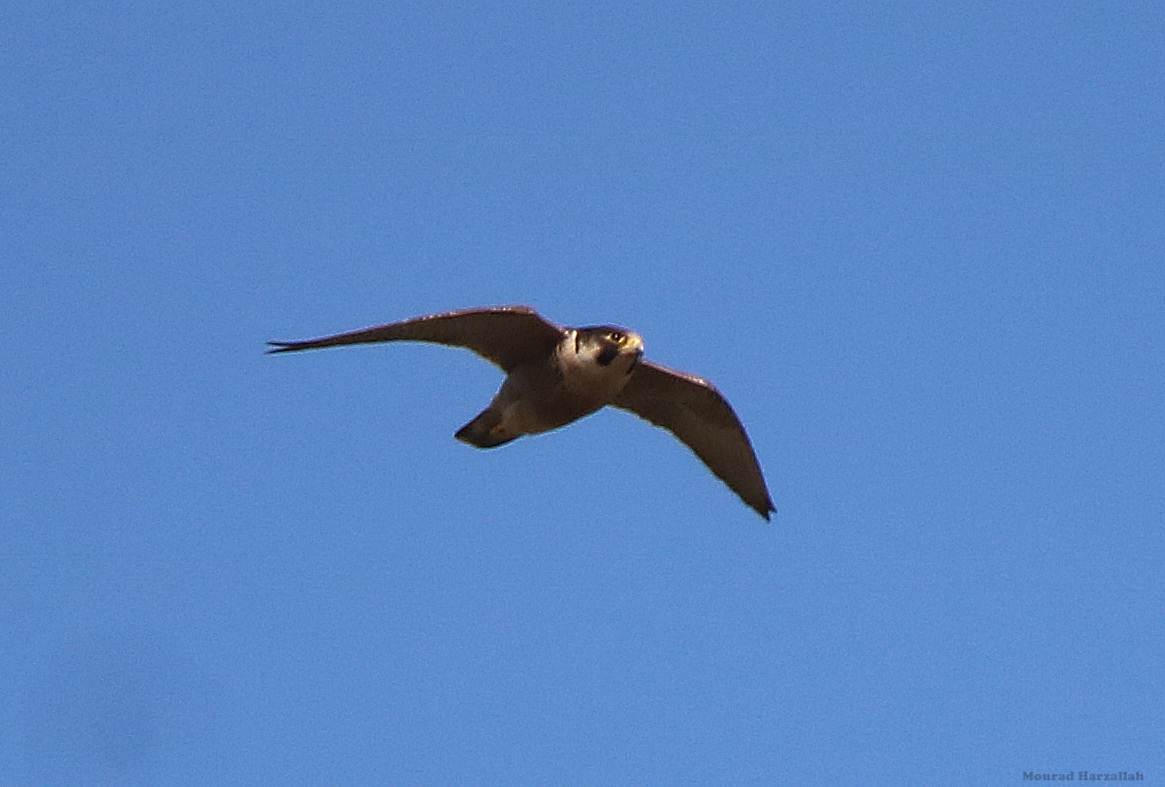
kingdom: Animalia
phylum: Chordata
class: Aves
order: Falconiformes
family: Falconidae
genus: Falco
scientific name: Falco peregrinus
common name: Peregrine falcon
